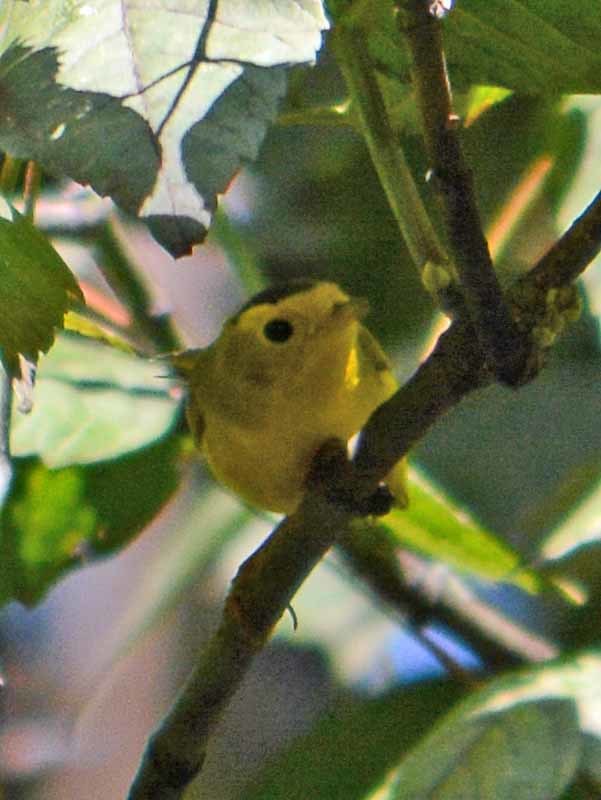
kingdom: Animalia
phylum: Chordata
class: Aves
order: Passeriformes
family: Parulidae
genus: Cardellina
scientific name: Cardellina pusilla
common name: Wilson's warbler
